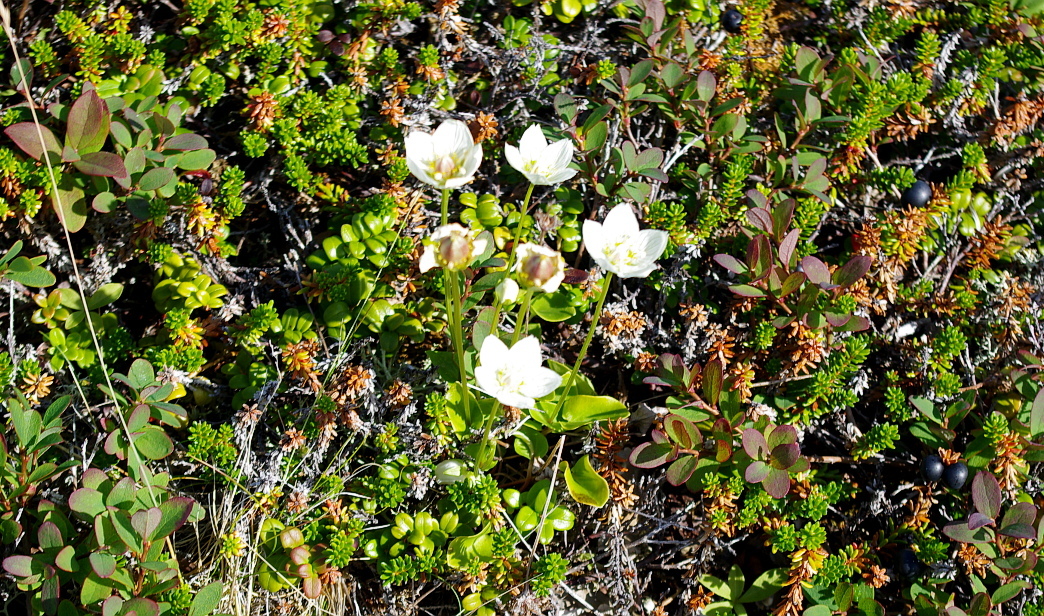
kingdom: Plantae
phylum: Tracheophyta
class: Magnoliopsida
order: Celastrales
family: Parnassiaceae
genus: Parnassia
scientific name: Parnassia palustris
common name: Grass-of-parnassus
